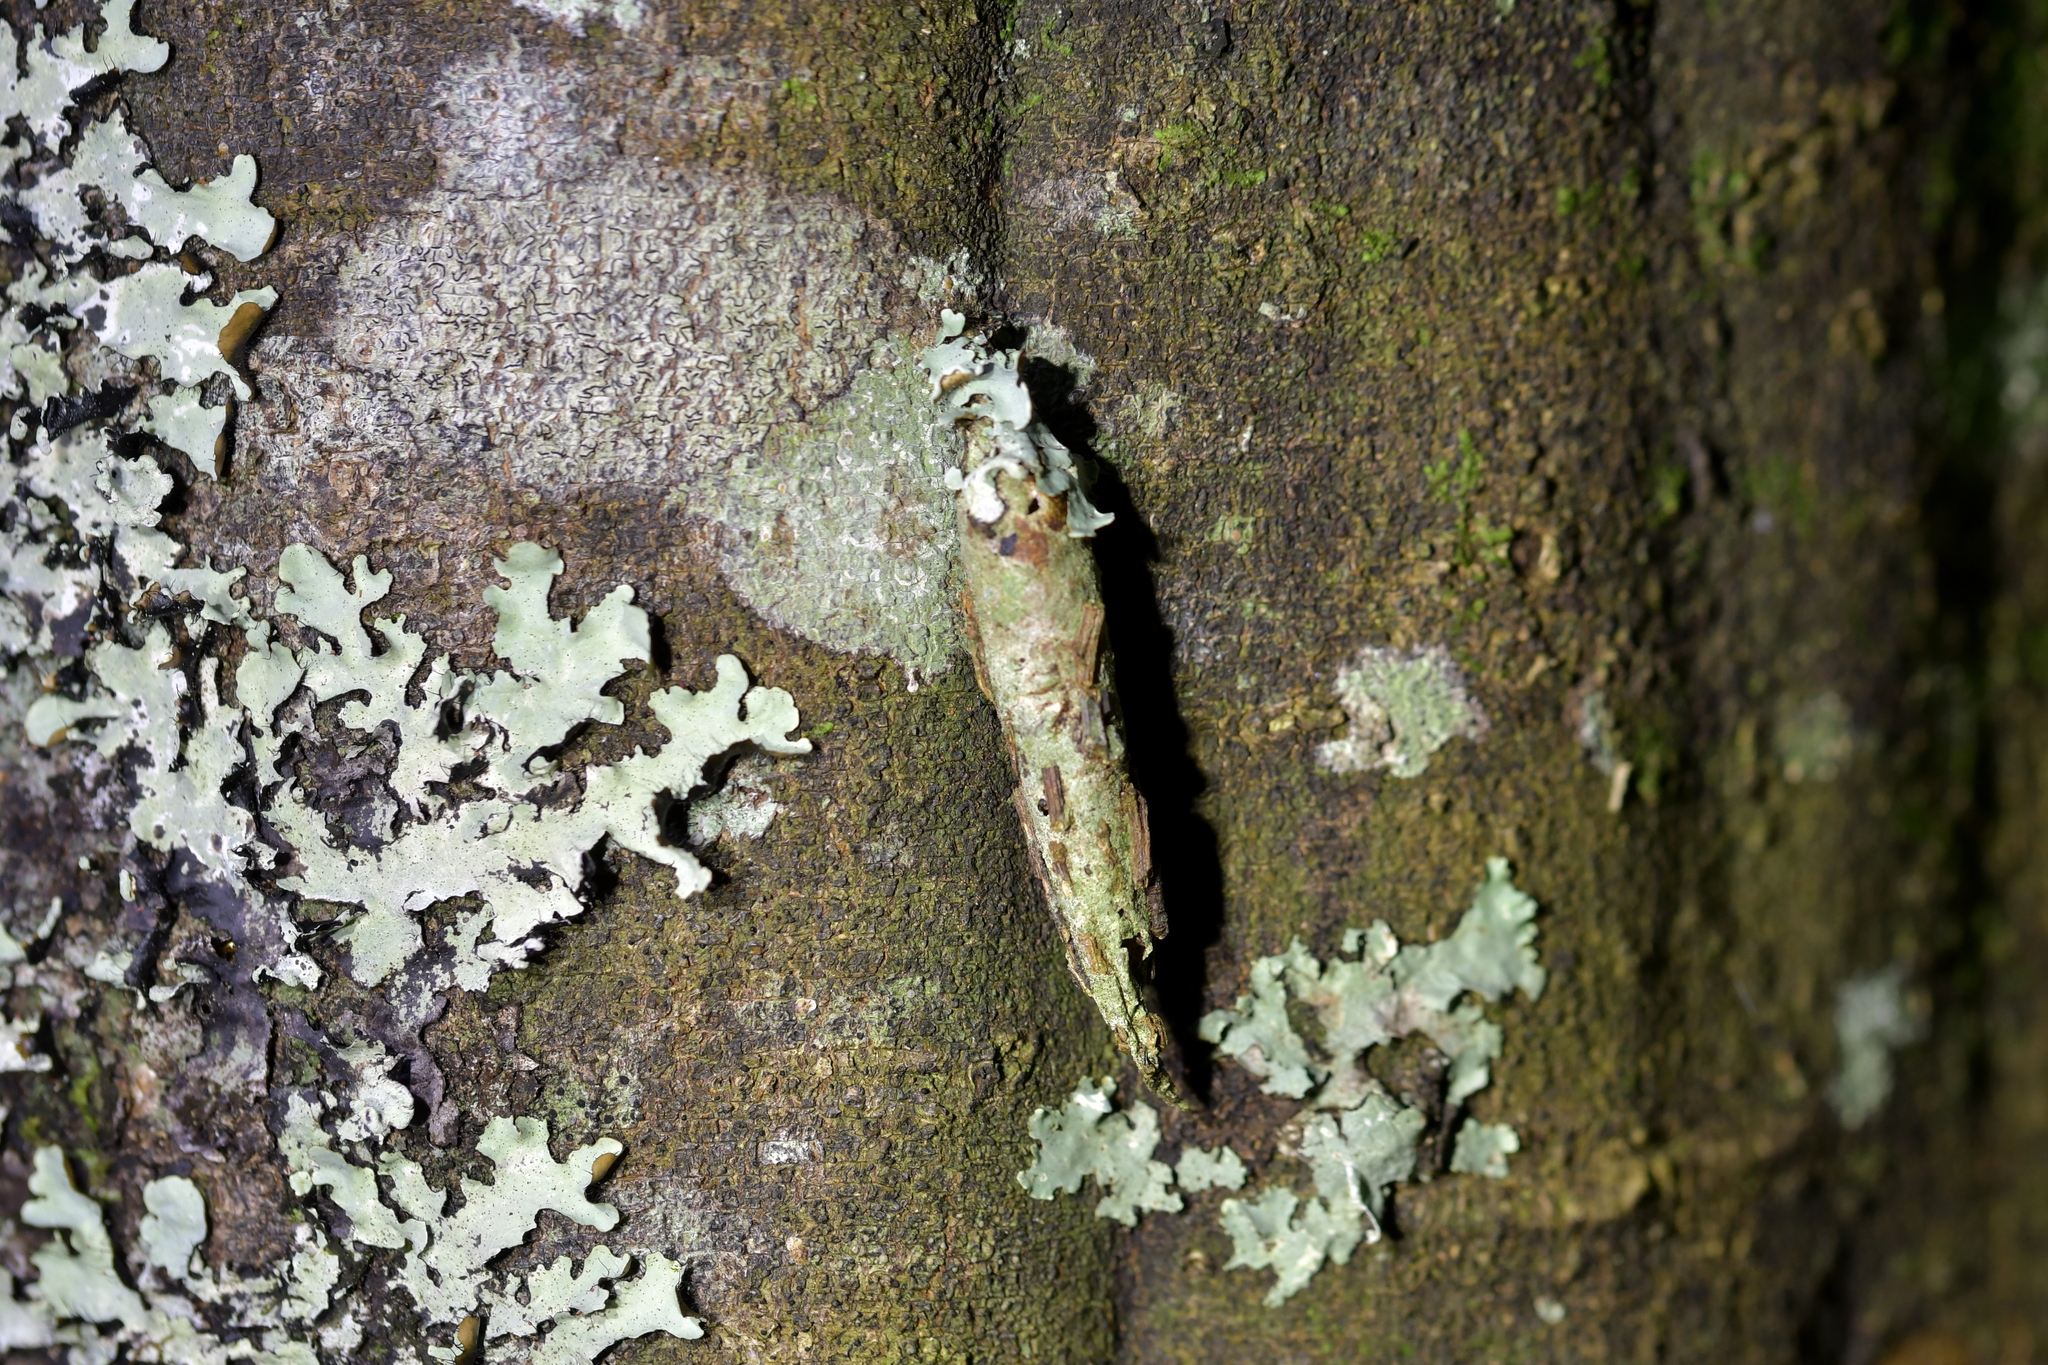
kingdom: Animalia
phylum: Arthropoda
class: Insecta
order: Lepidoptera
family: Psychidae
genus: Liothula
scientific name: Liothula omnivora
